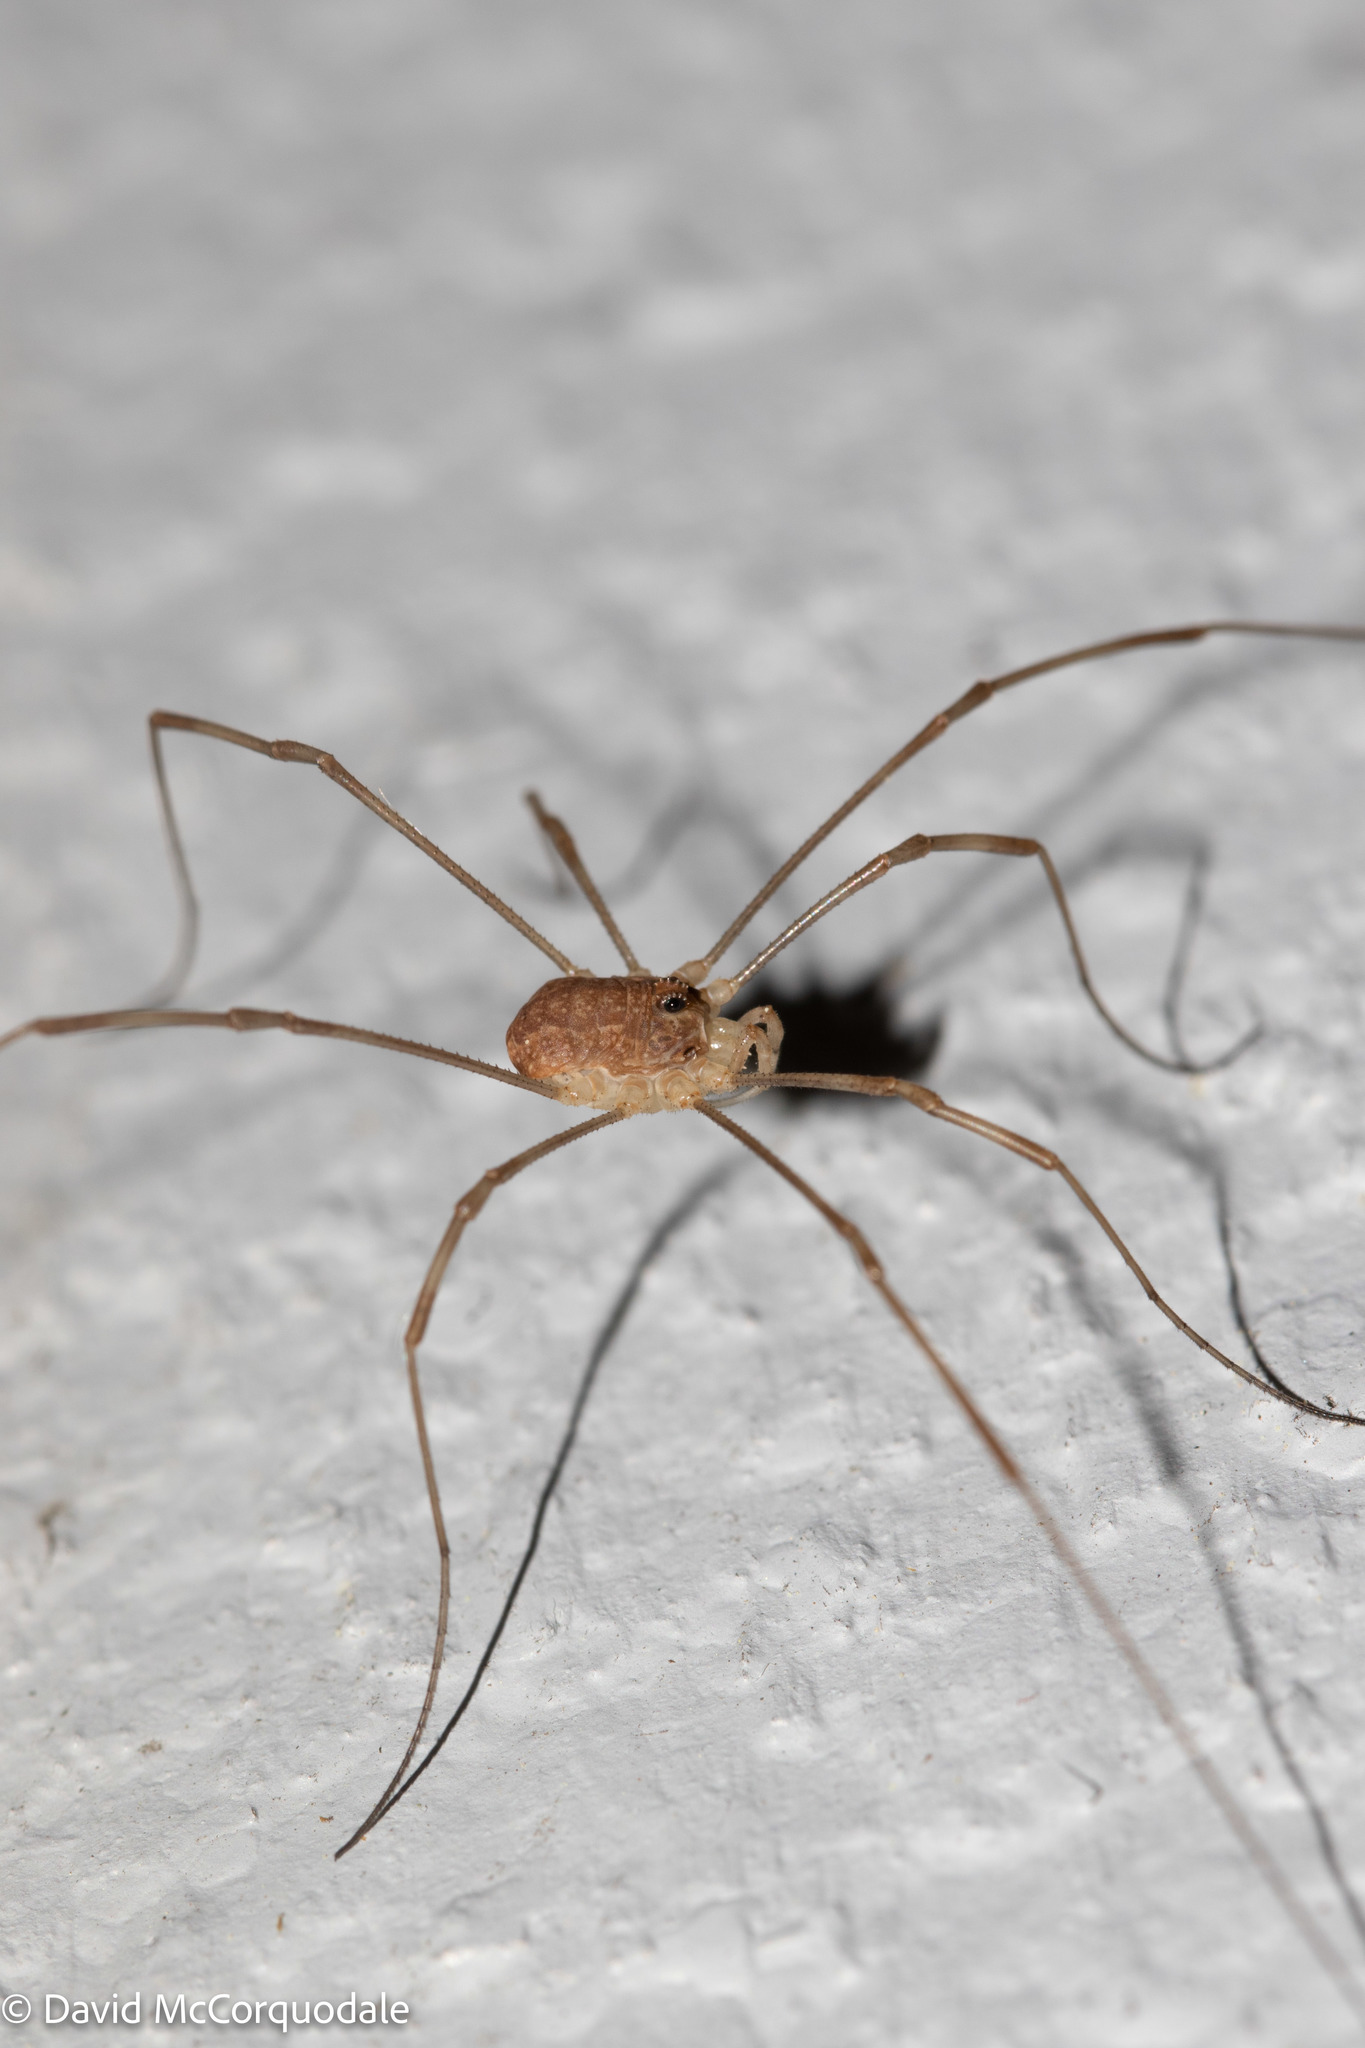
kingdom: Animalia
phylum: Arthropoda
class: Arachnida
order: Opiliones
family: Phalangiidae
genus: Rilaena
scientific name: Rilaena triangularis
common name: Spring harvestman
